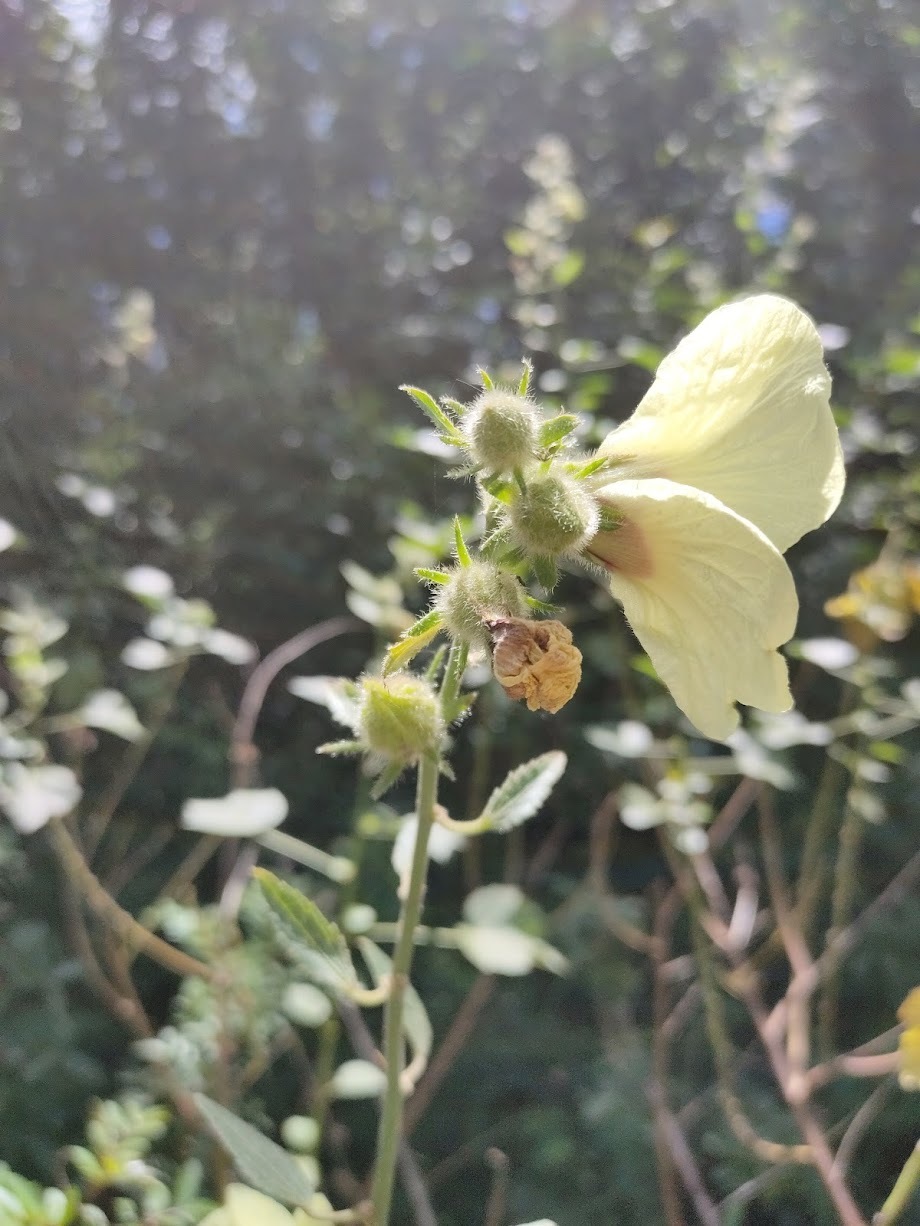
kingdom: Plantae
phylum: Tracheophyta
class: Magnoliopsida
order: Malvales
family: Malvaceae
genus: Hibiscus
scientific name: Hibiscus diversifolius
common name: Cape hibiscus
